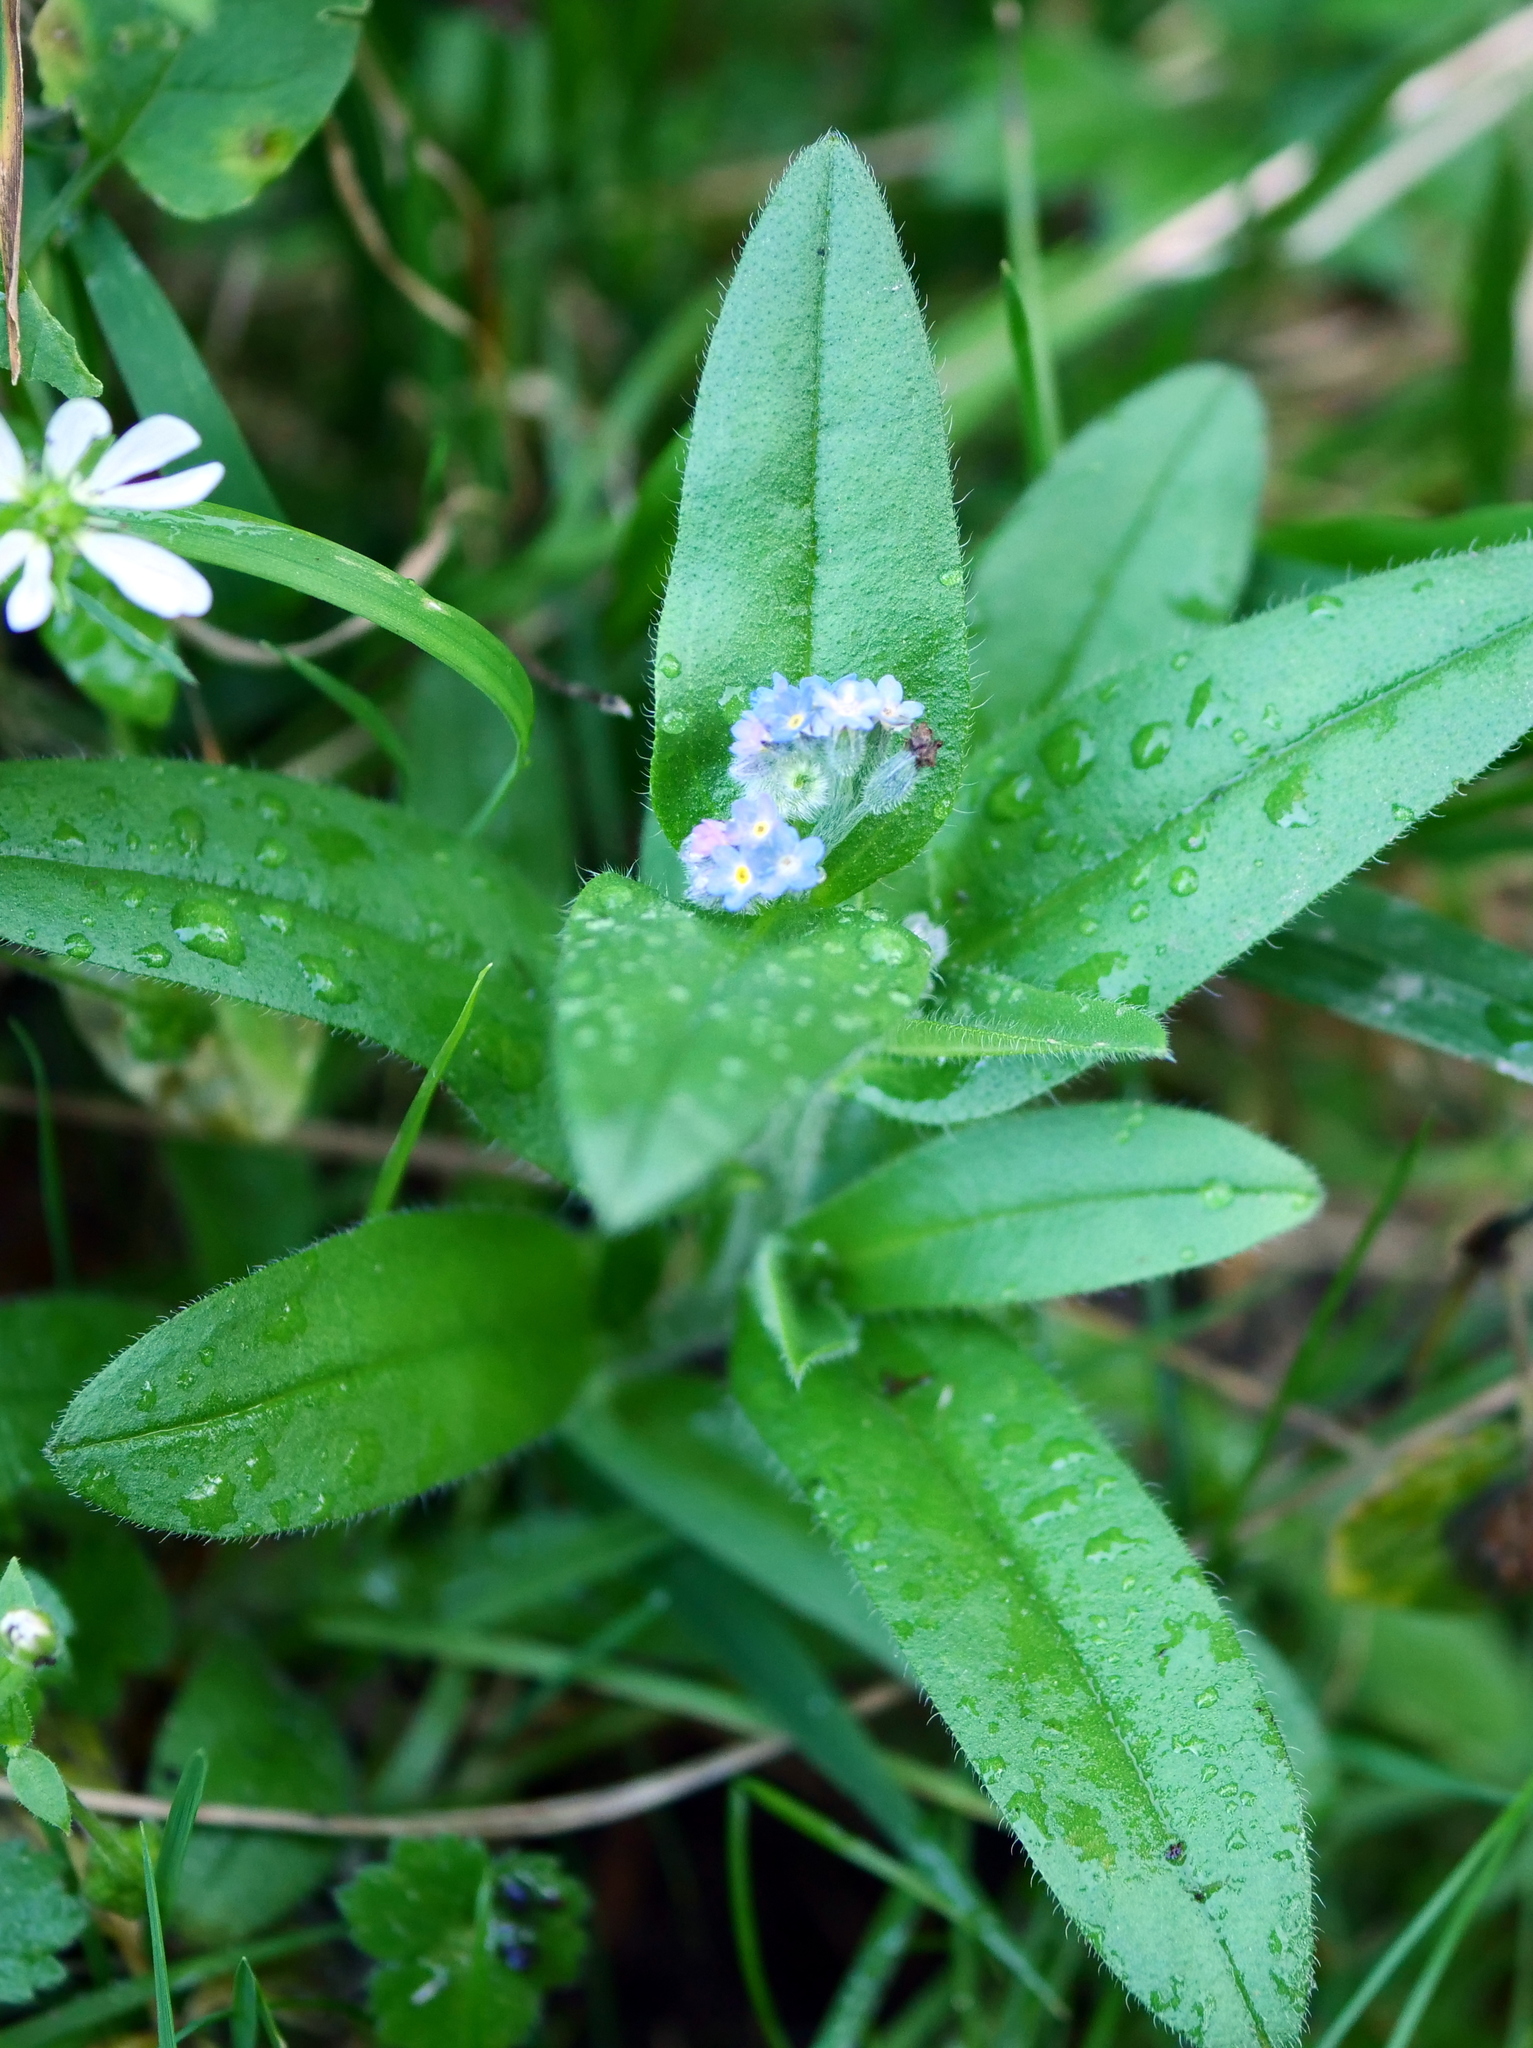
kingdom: Plantae
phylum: Tracheophyta
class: Magnoliopsida
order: Boraginales
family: Boraginaceae
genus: Myosotis
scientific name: Myosotis arvensis
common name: Field forget-me-not
